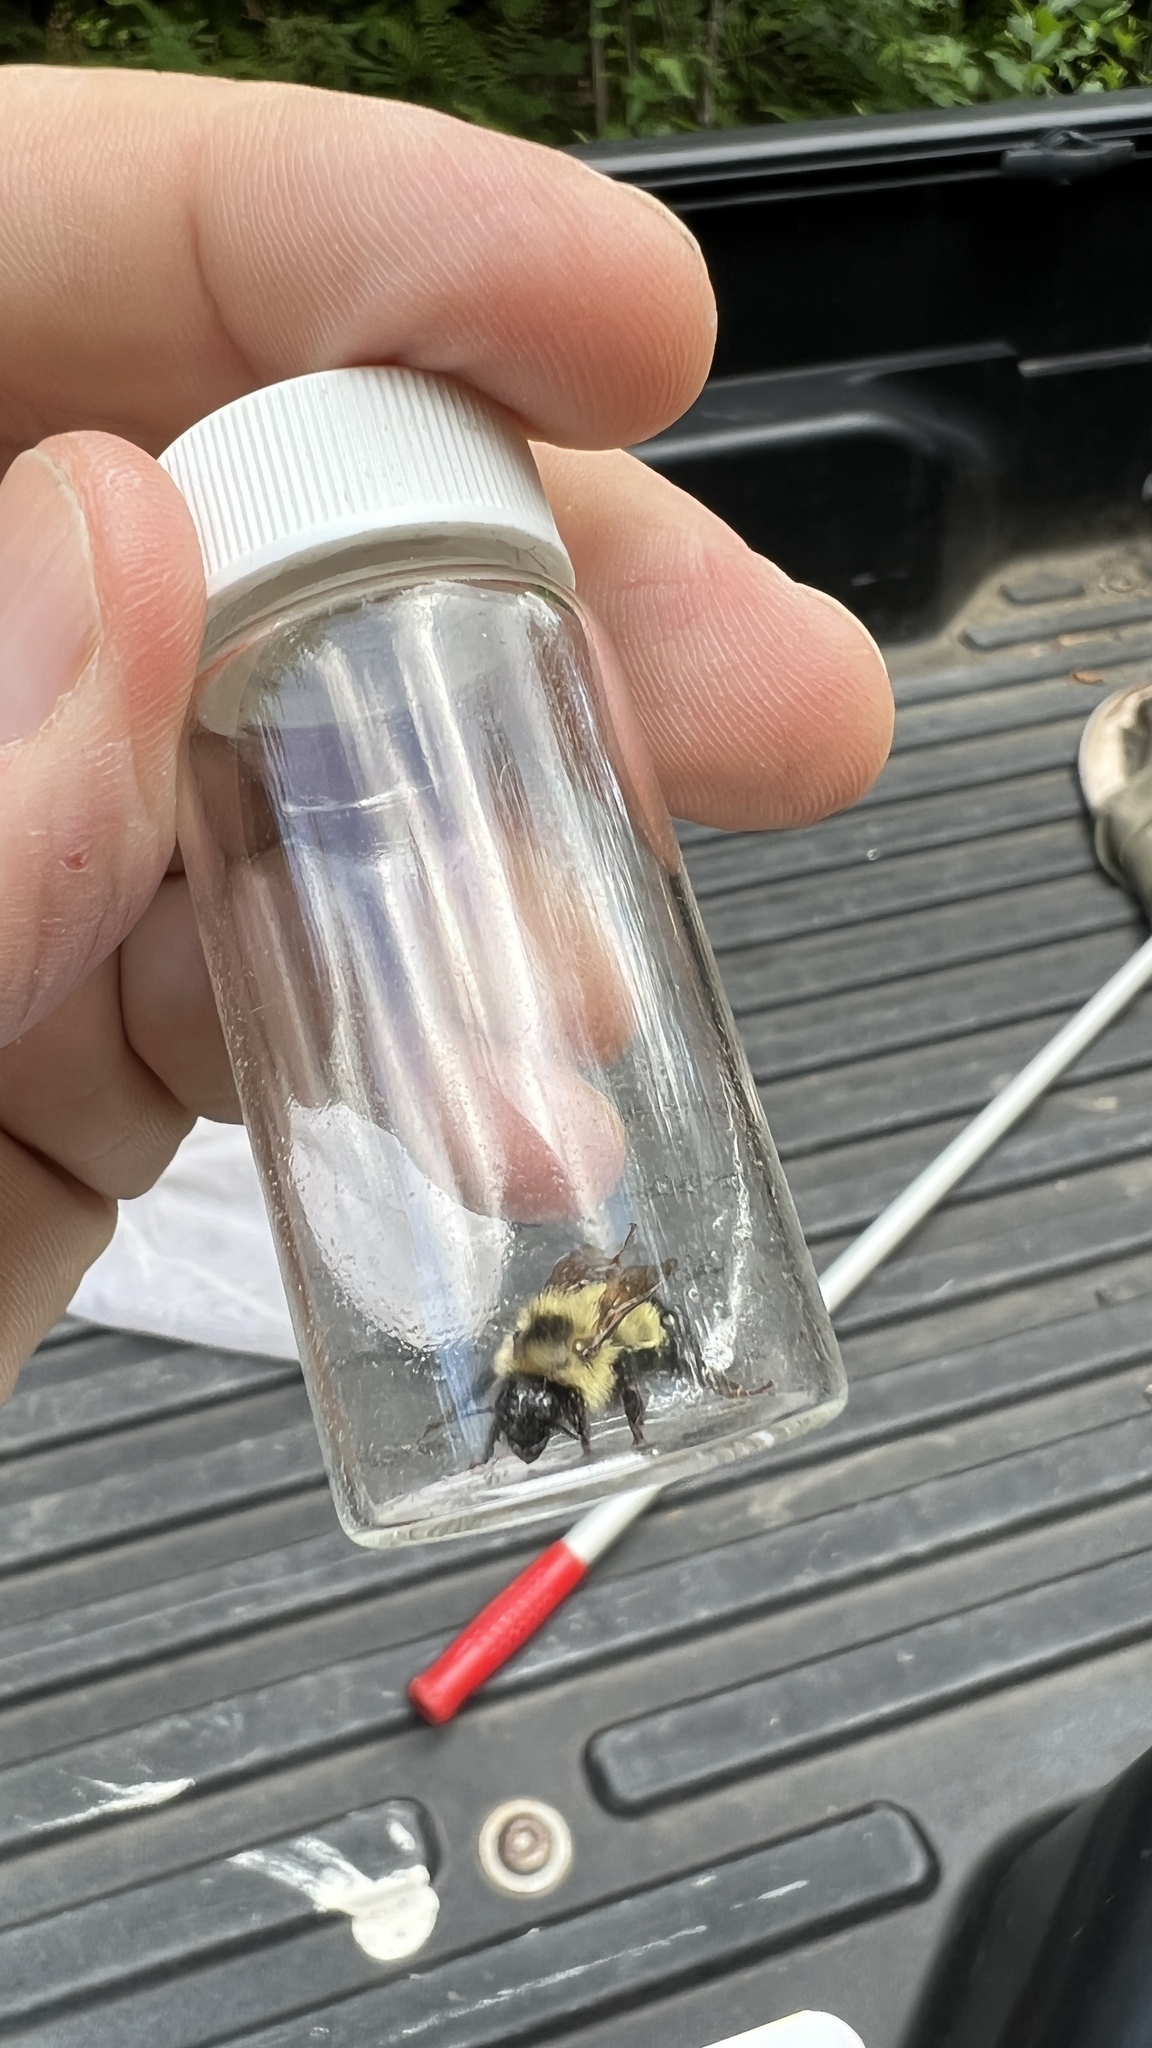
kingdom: Animalia
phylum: Arthropoda
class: Insecta
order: Hymenoptera
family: Apidae
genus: Pyrobombus
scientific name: Pyrobombus
